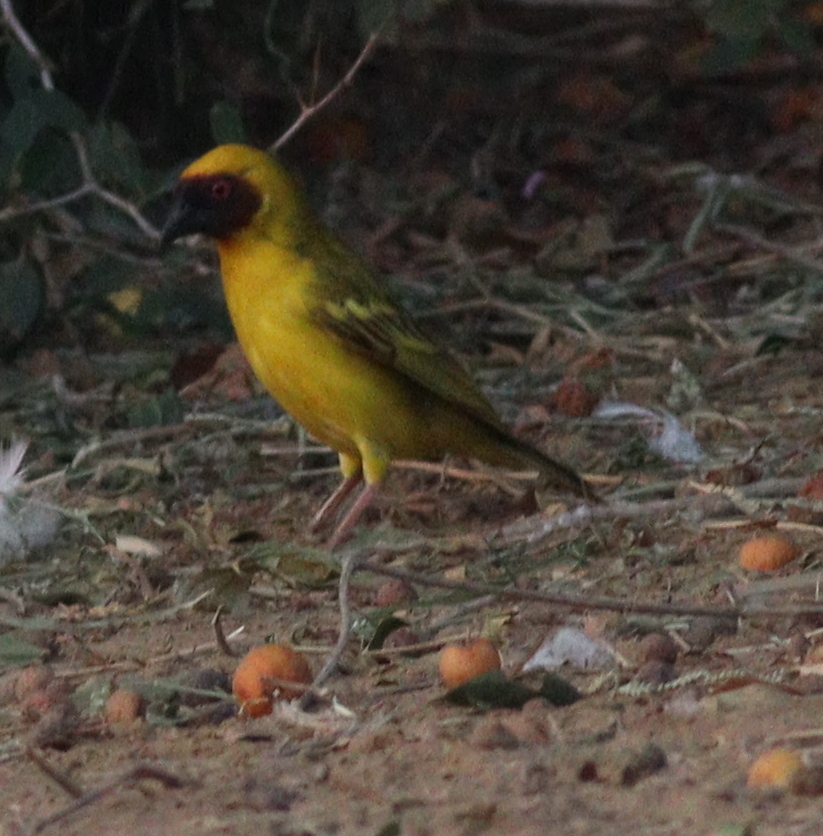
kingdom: Animalia
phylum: Chordata
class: Aves
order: Passeriformes
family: Ploceidae
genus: Ploceus
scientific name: Ploceus galbula
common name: Rüppell's weaver
